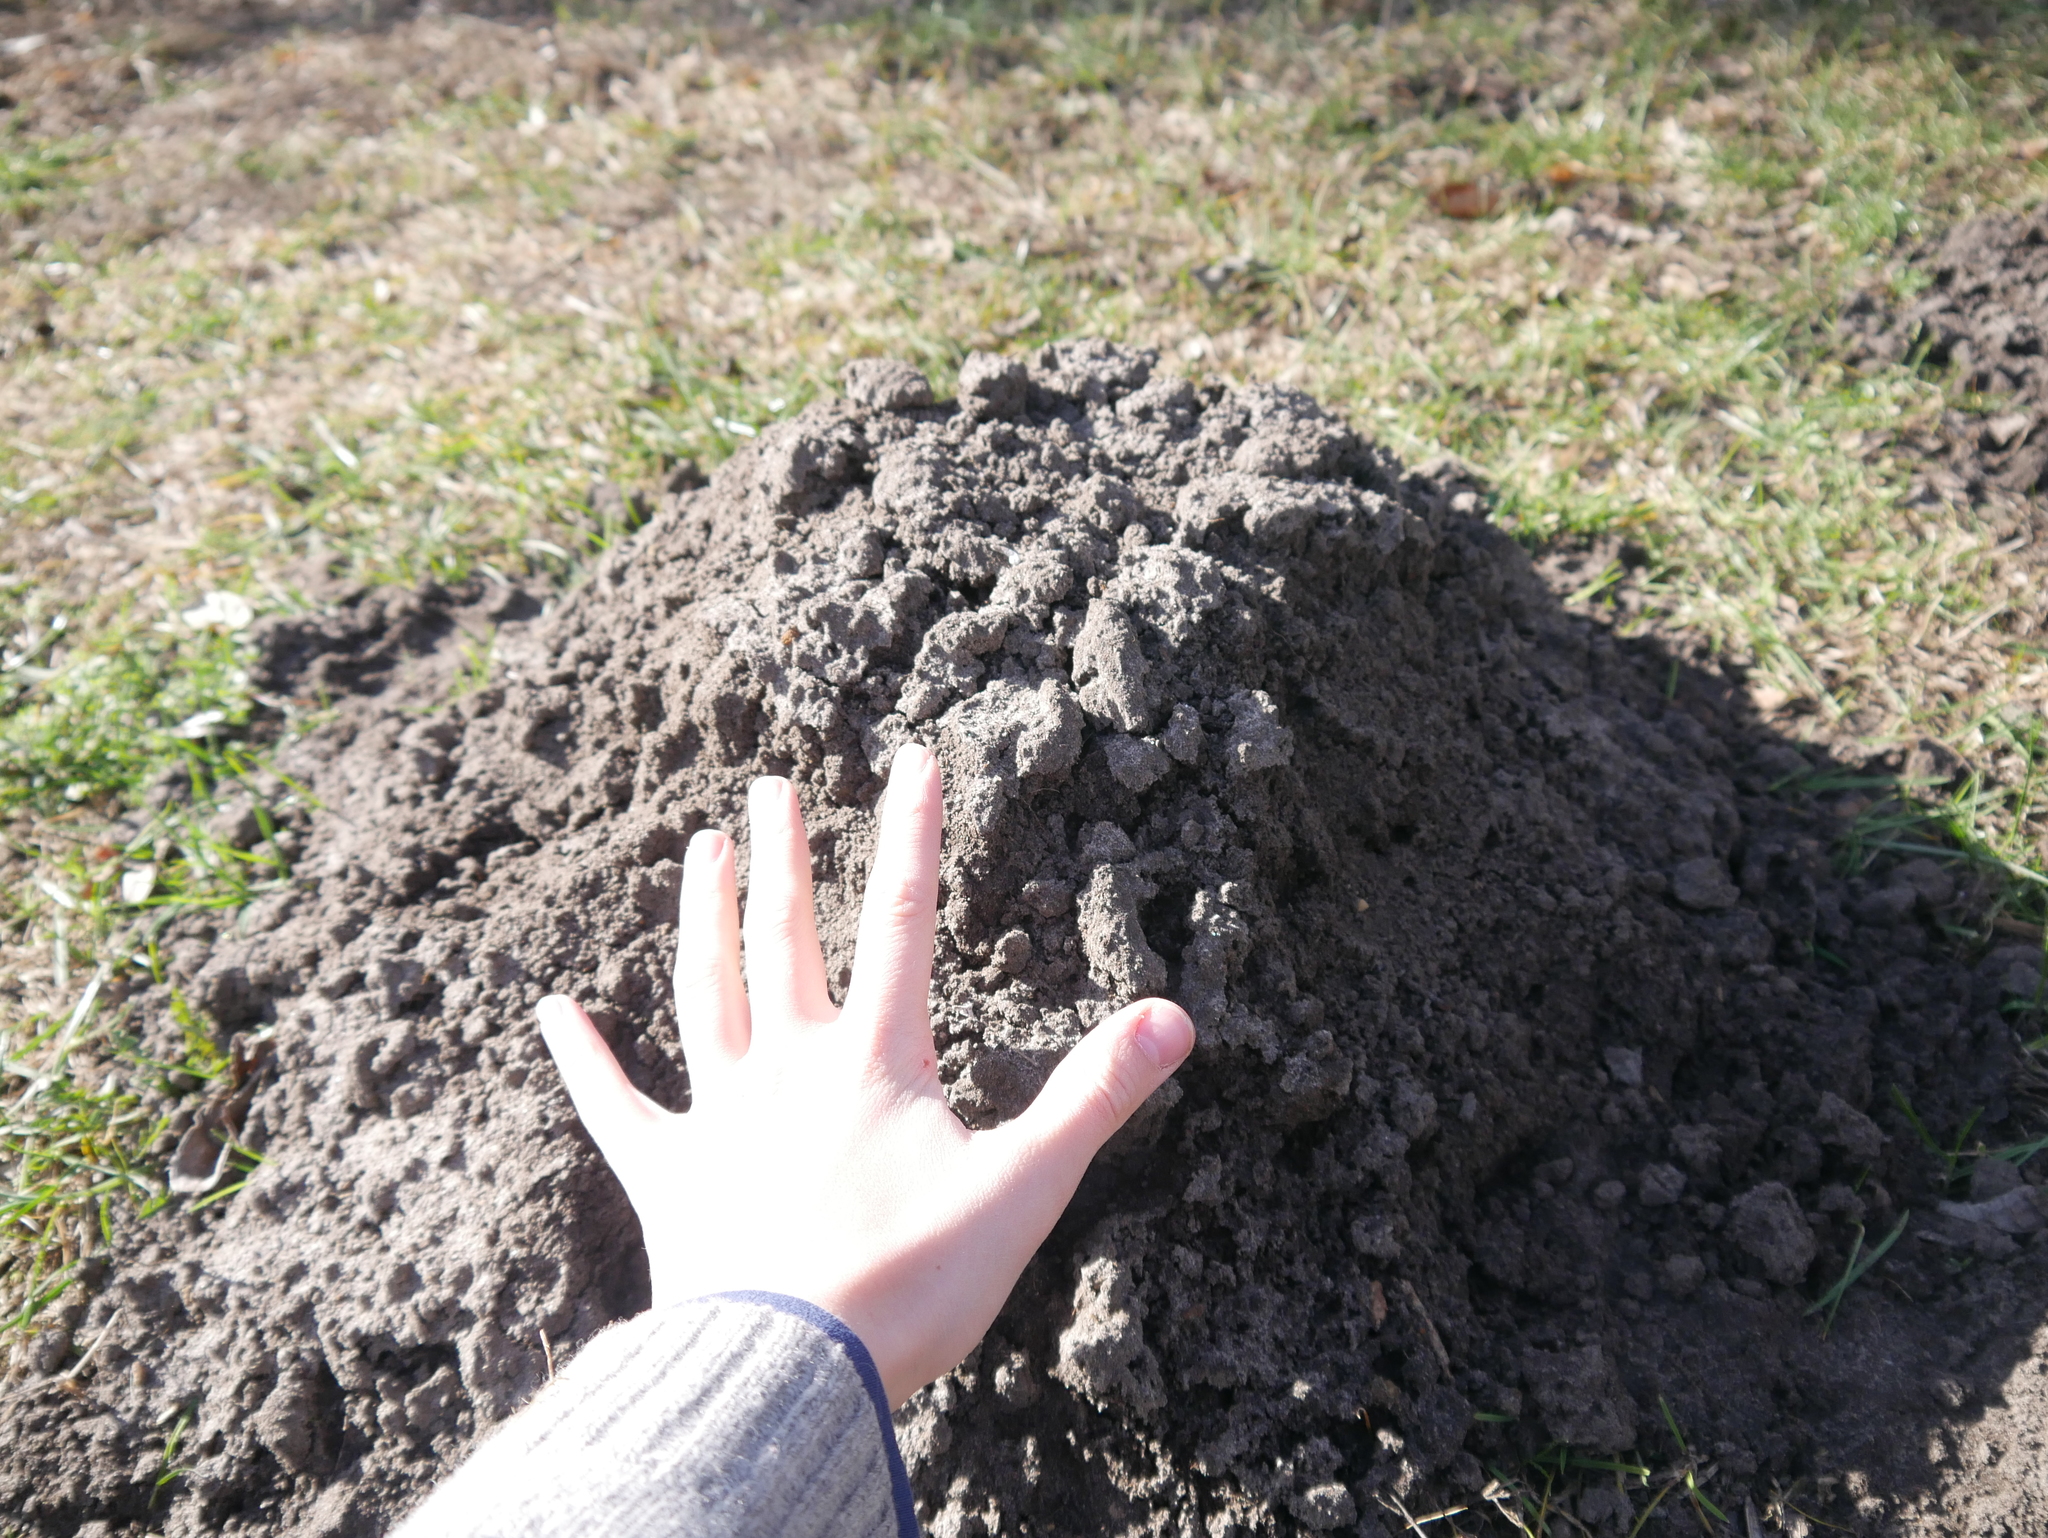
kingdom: Animalia
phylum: Chordata
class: Mammalia
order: Soricomorpha
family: Talpidae
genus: Talpa
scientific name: Talpa europaea
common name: European mole
